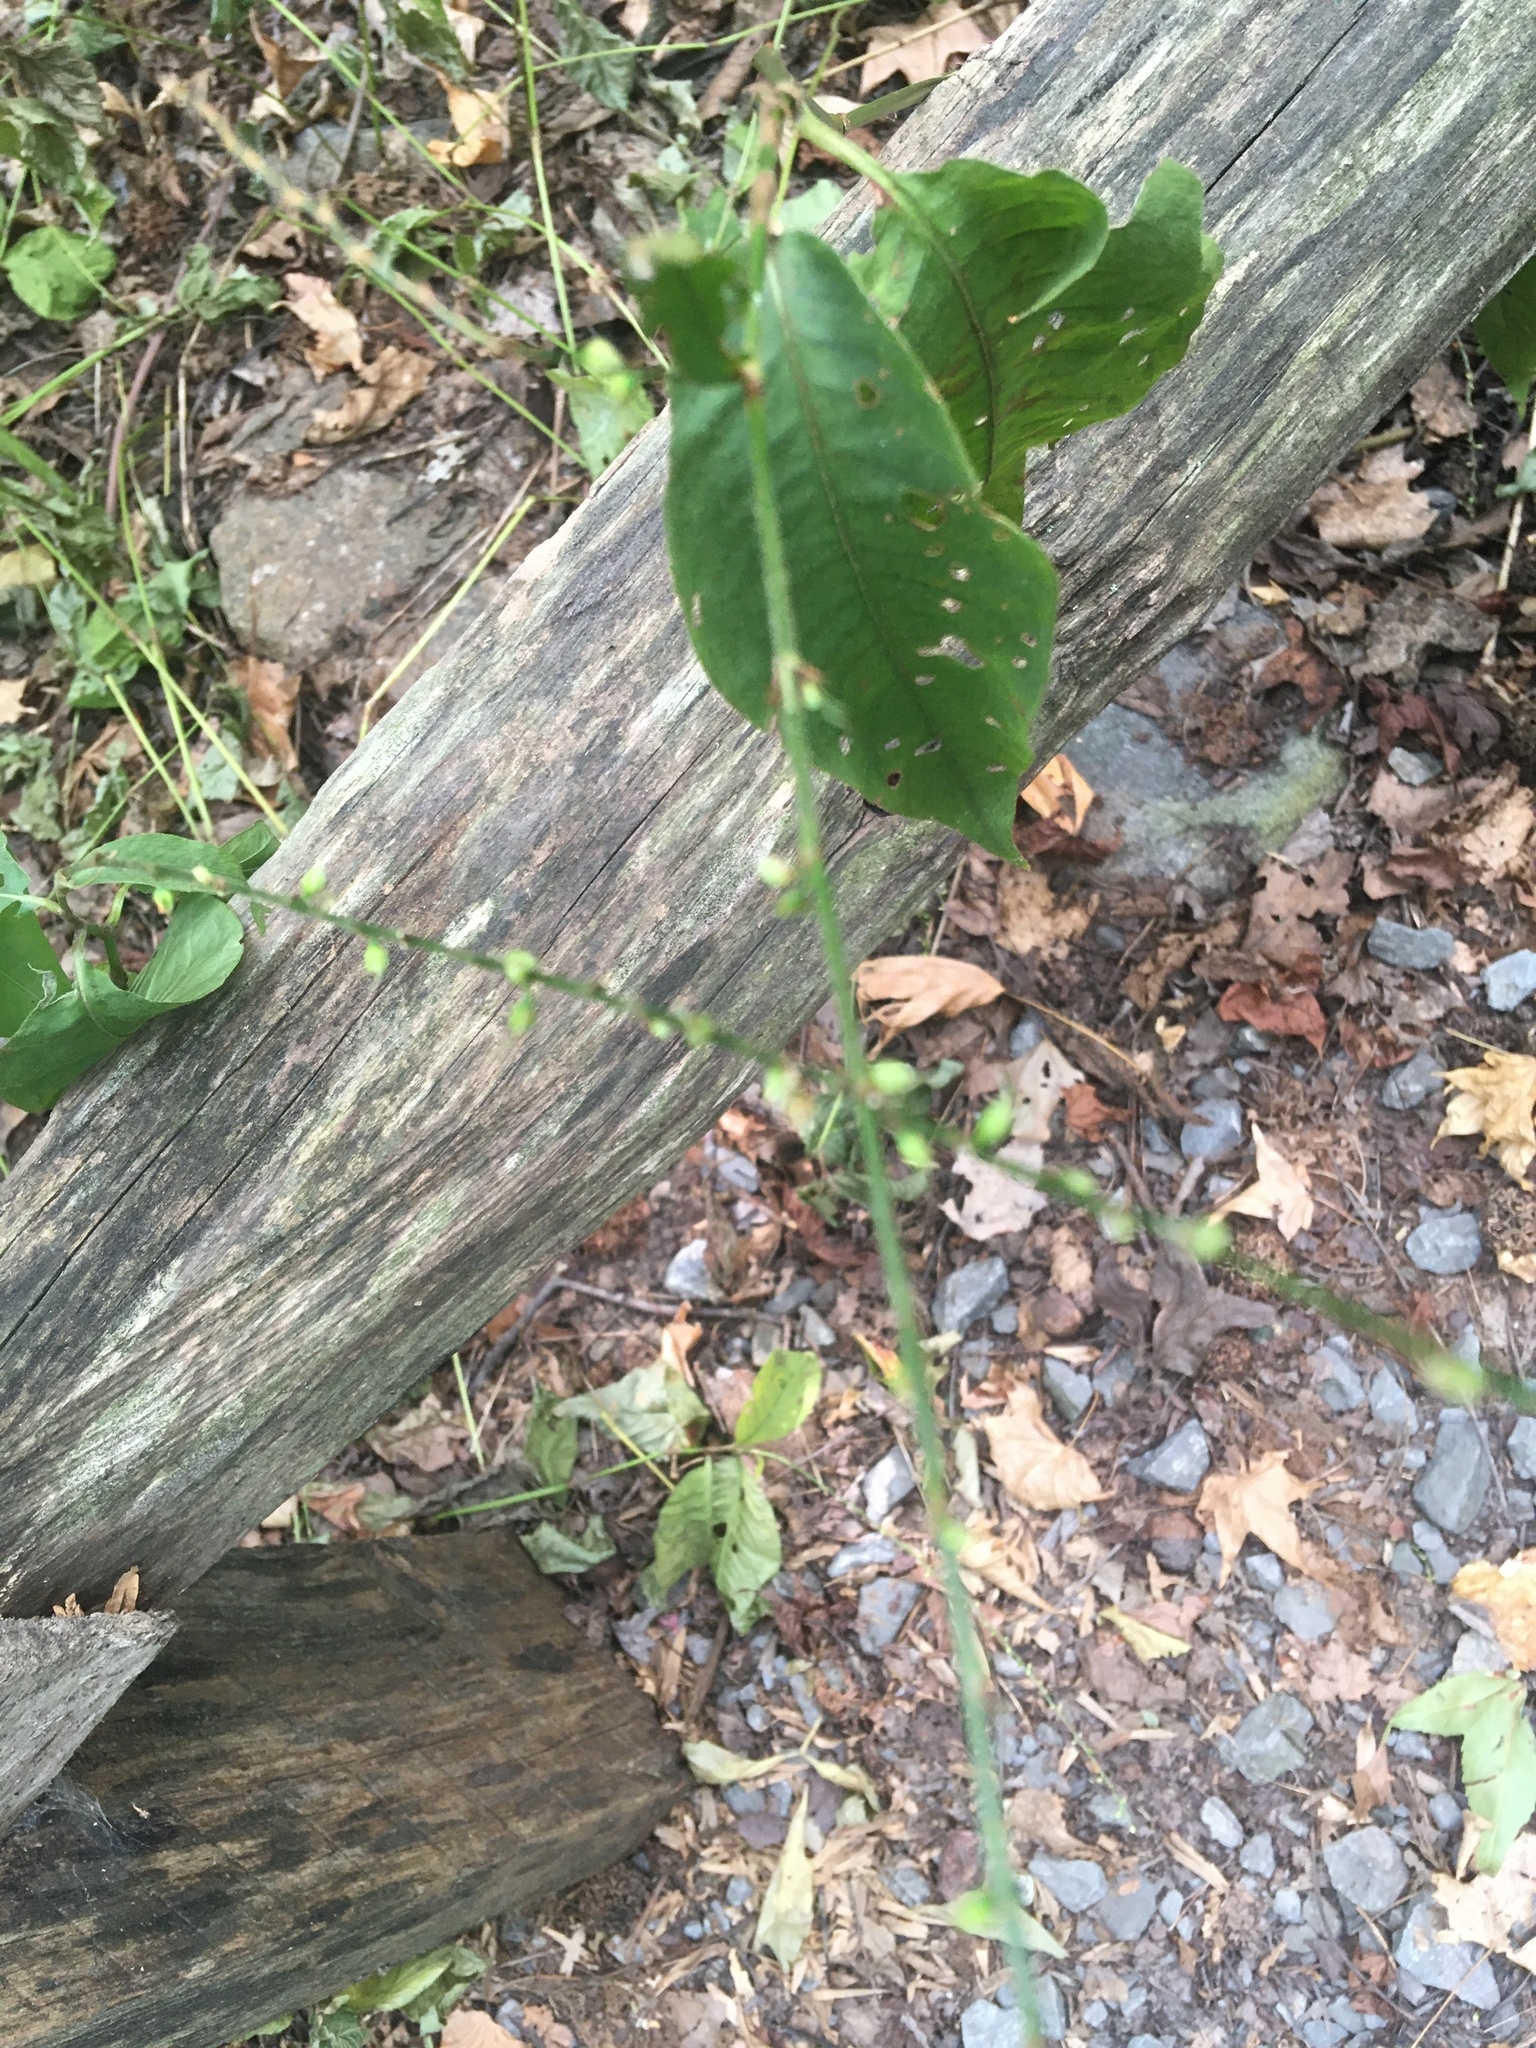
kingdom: Plantae
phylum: Tracheophyta
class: Magnoliopsida
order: Caryophyllales
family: Polygonaceae
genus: Persicaria
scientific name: Persicaria virginiana
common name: Jumpseed
